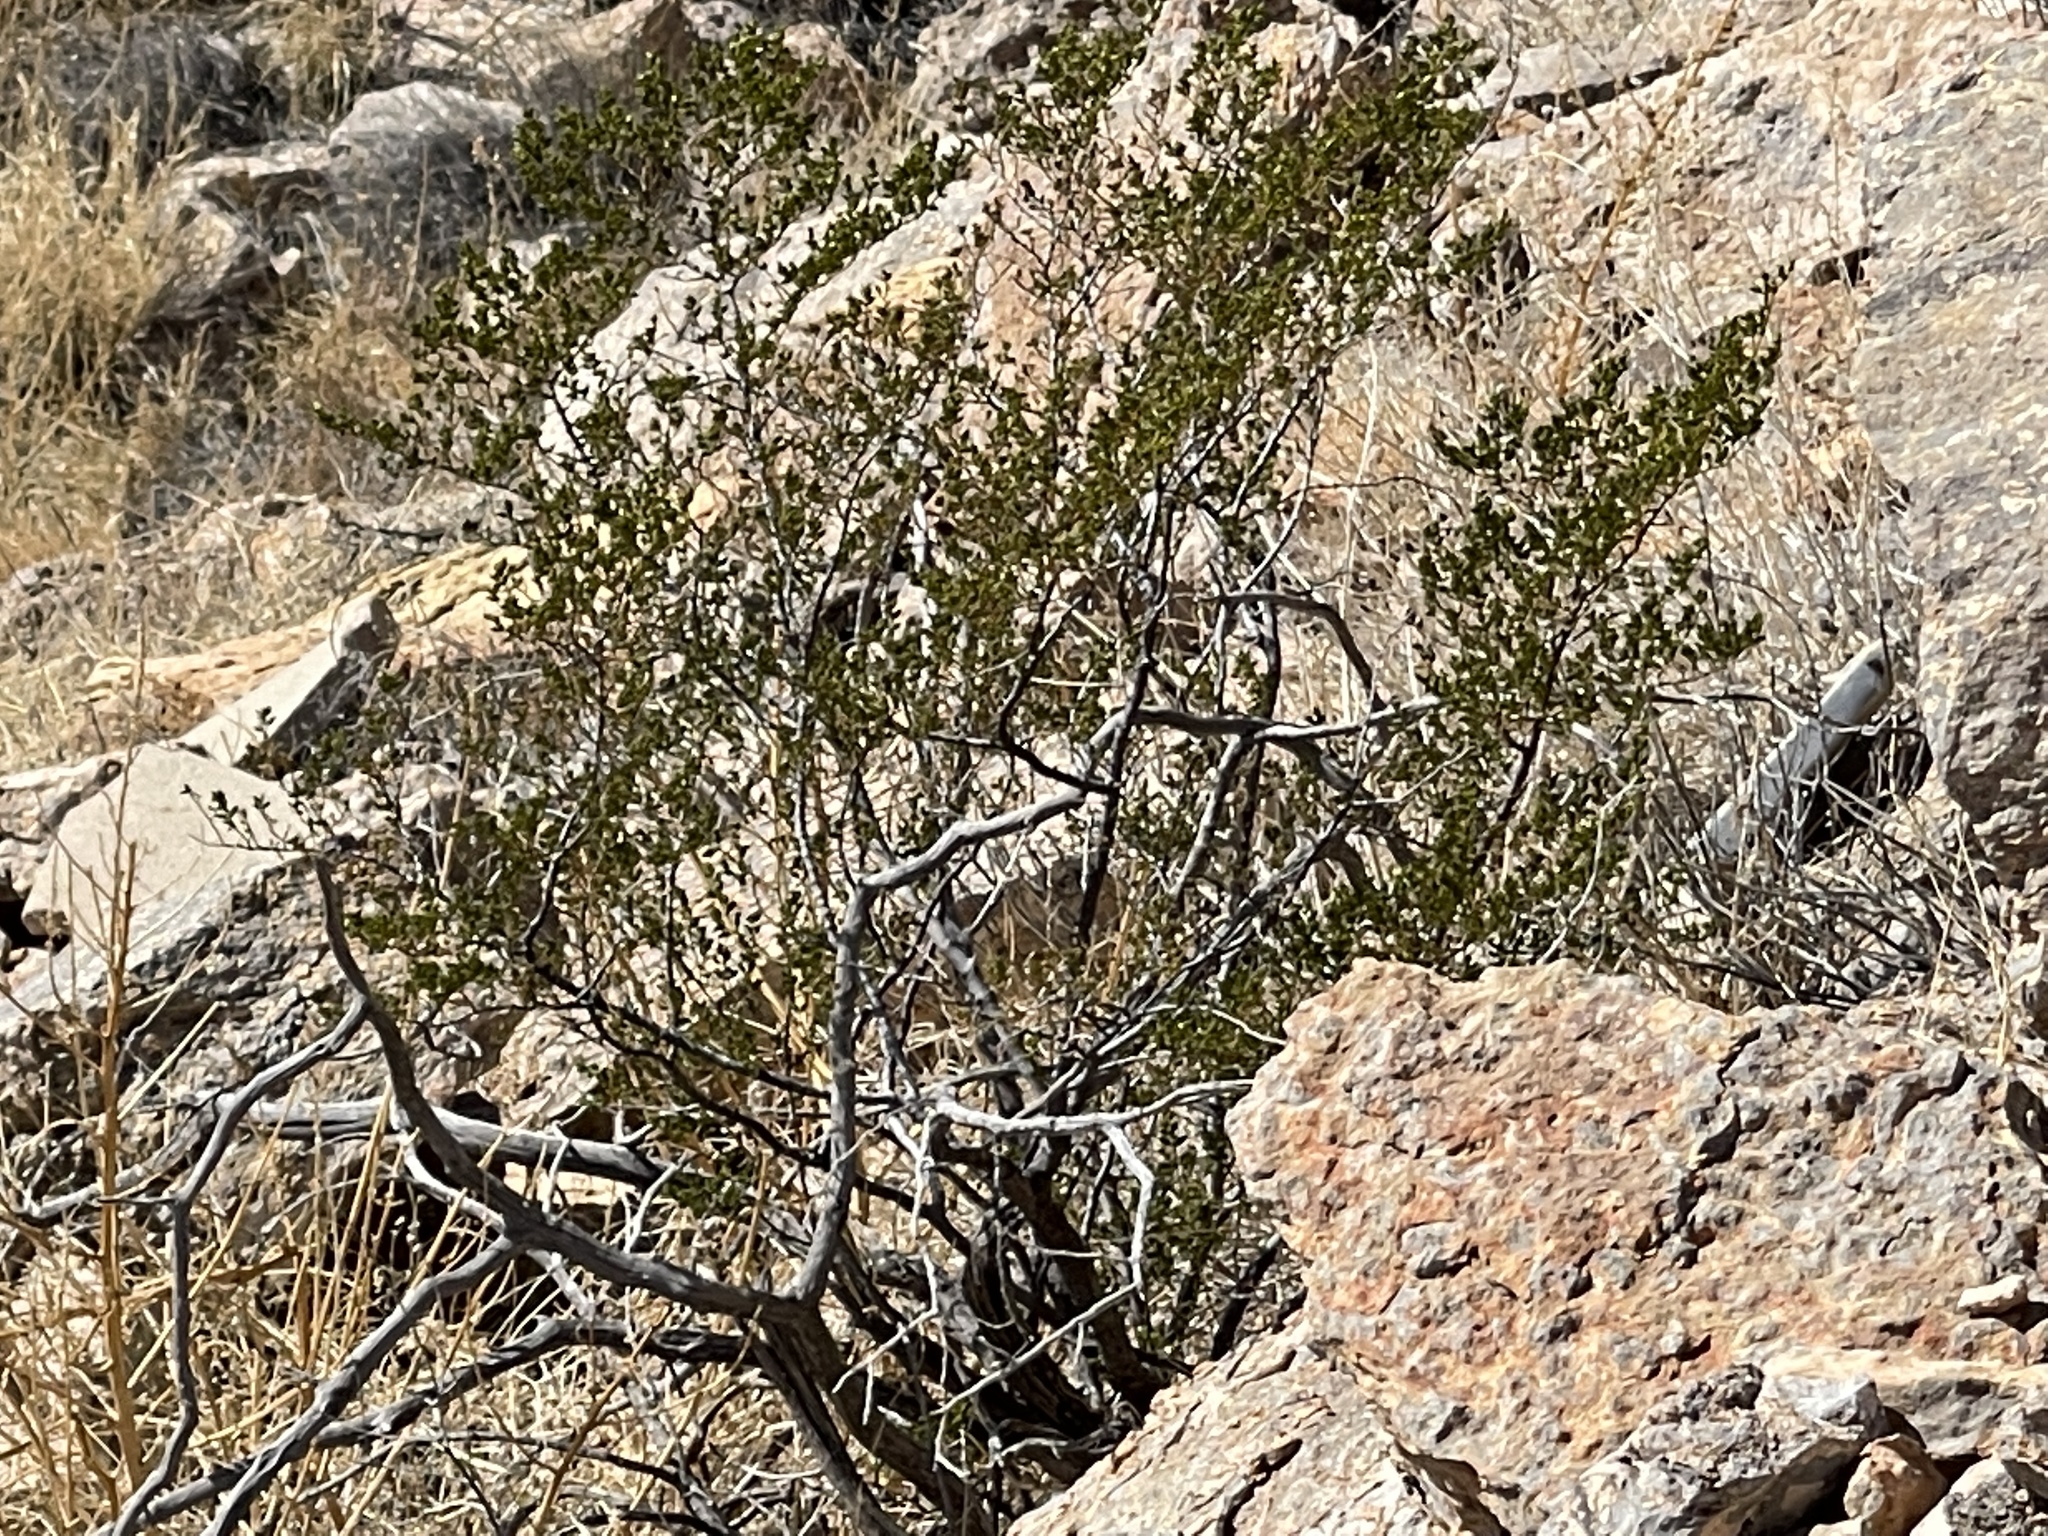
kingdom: Plantae
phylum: Tracheophyta
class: Magnoliopsida
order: Zygophyllales
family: Zygophyllaceae
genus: Larrea
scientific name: Larrea tridentata
